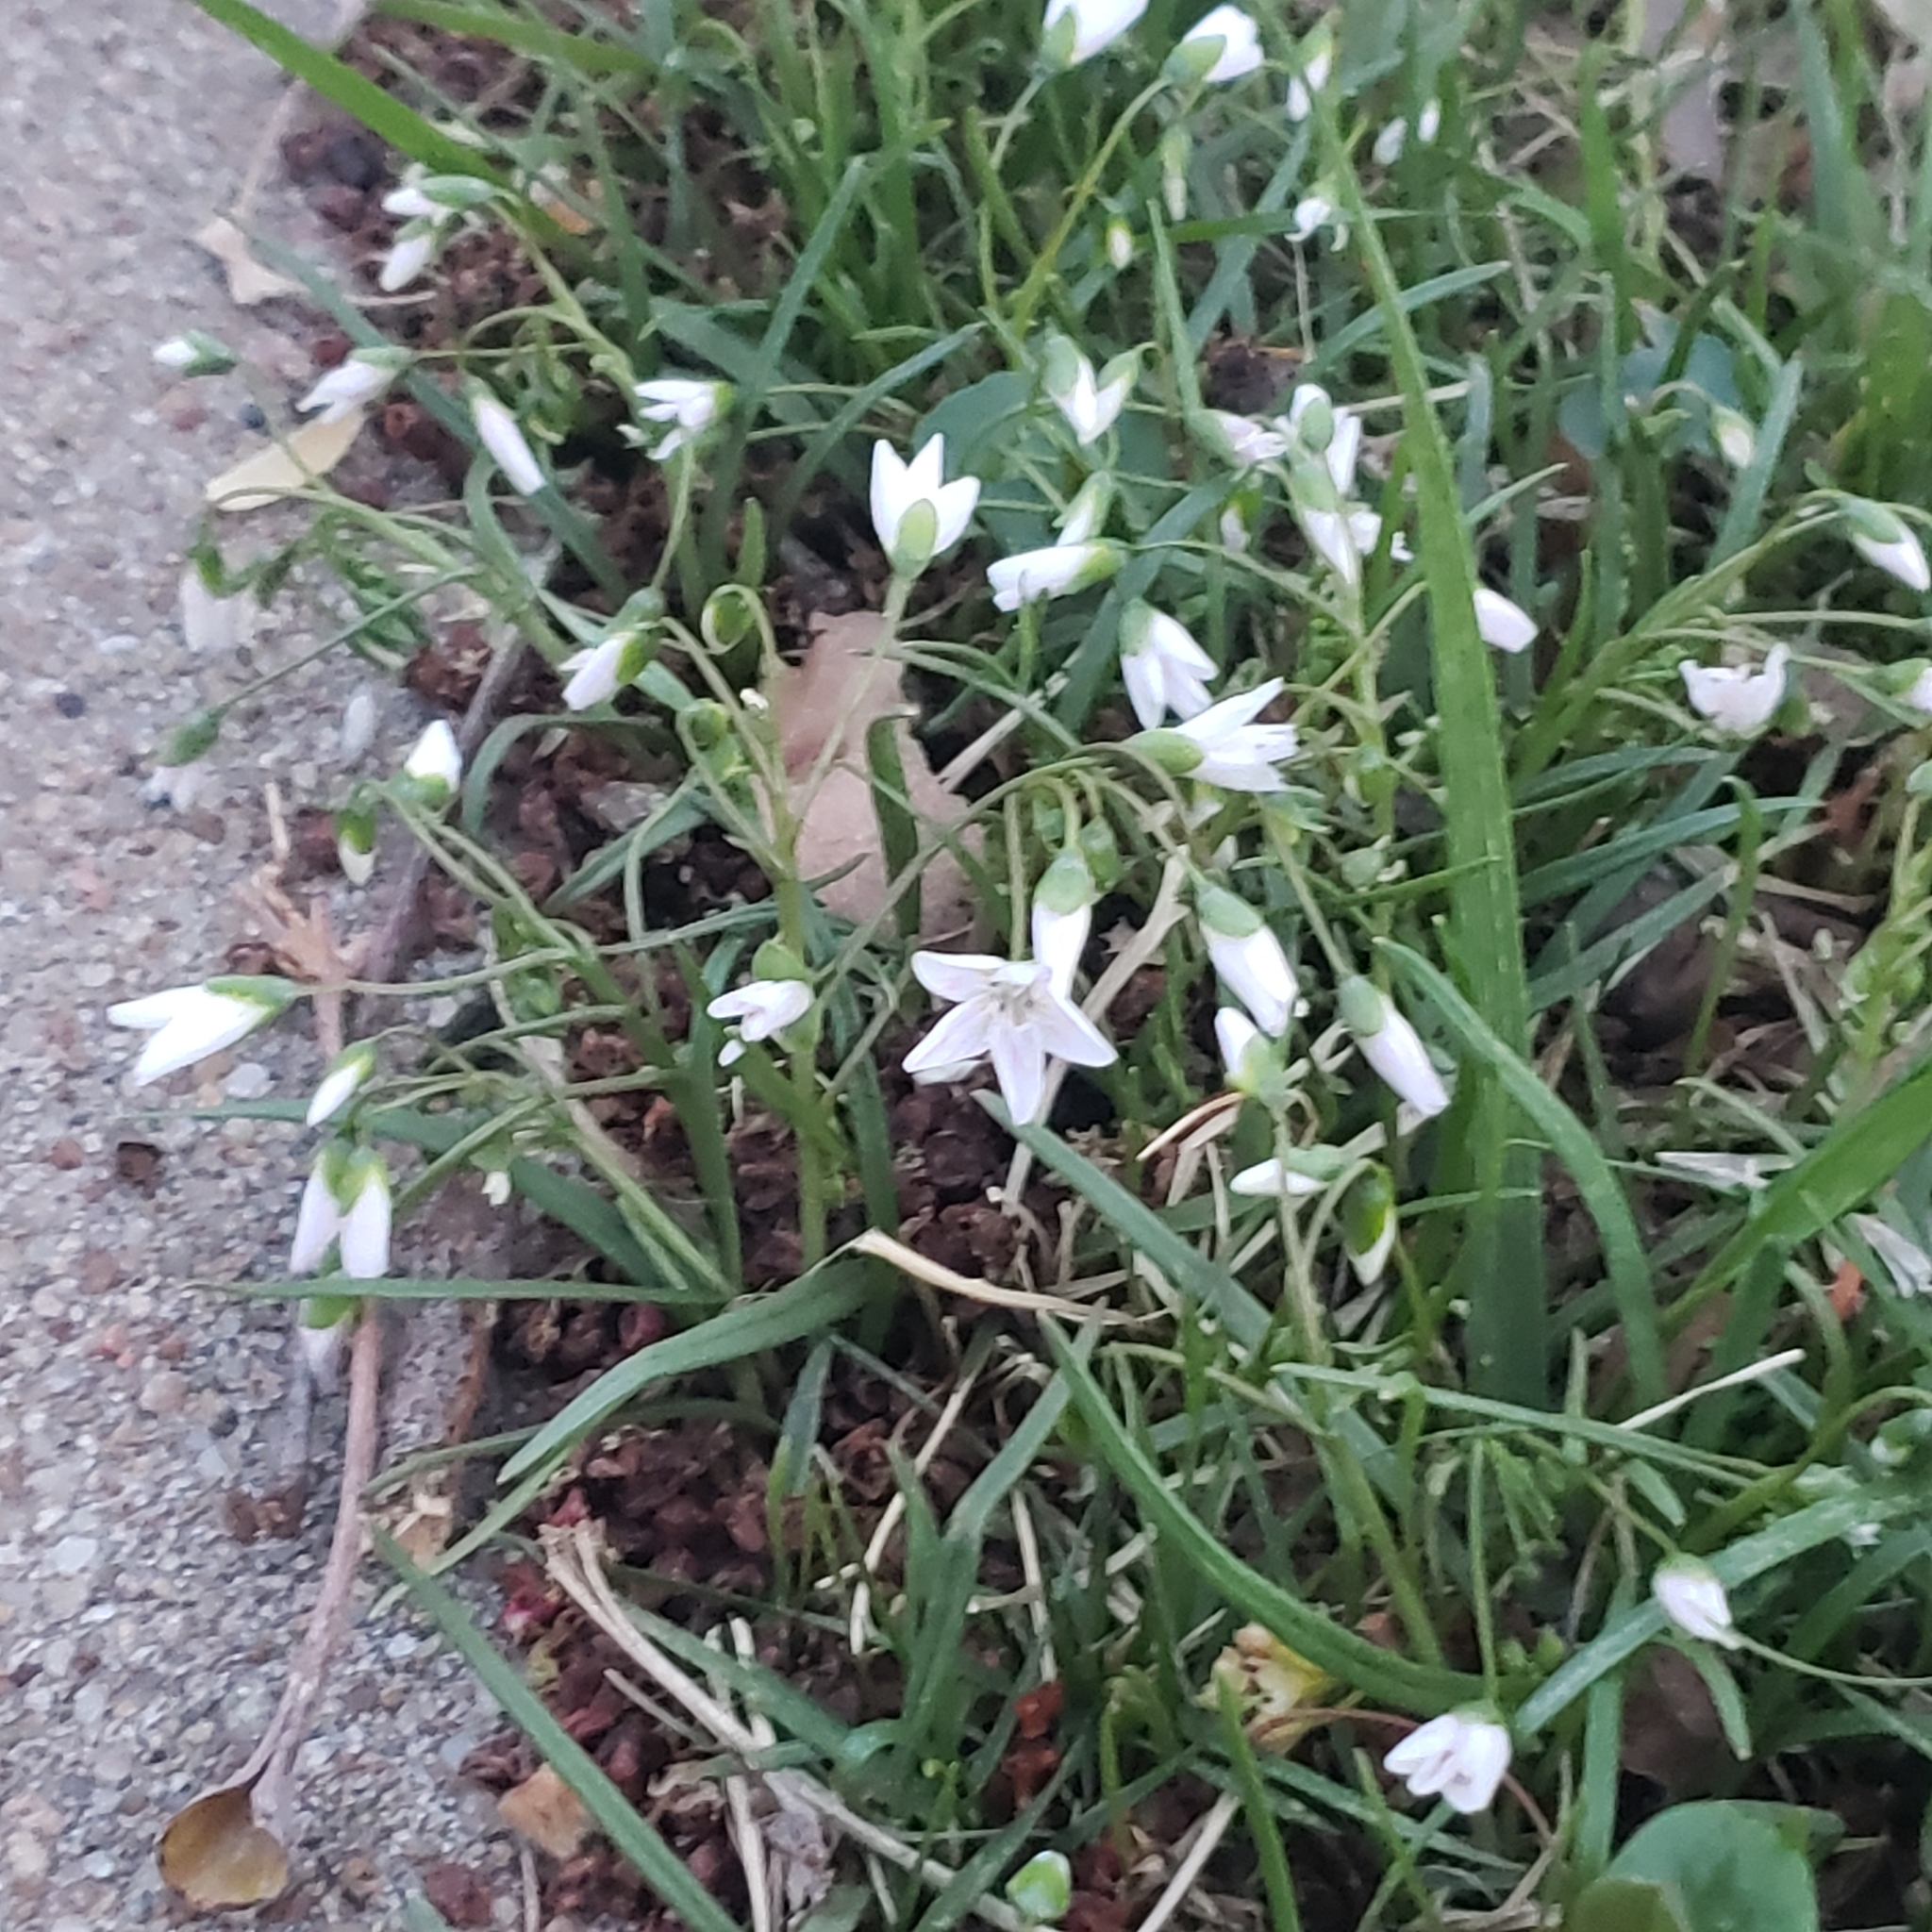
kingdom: Plantae
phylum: Tracheophyta
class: Magnoliopsida
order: Caryophyllales
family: Montiaceae
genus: Claytonia
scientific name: Claytonia virginica
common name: Virginia springbeauty
